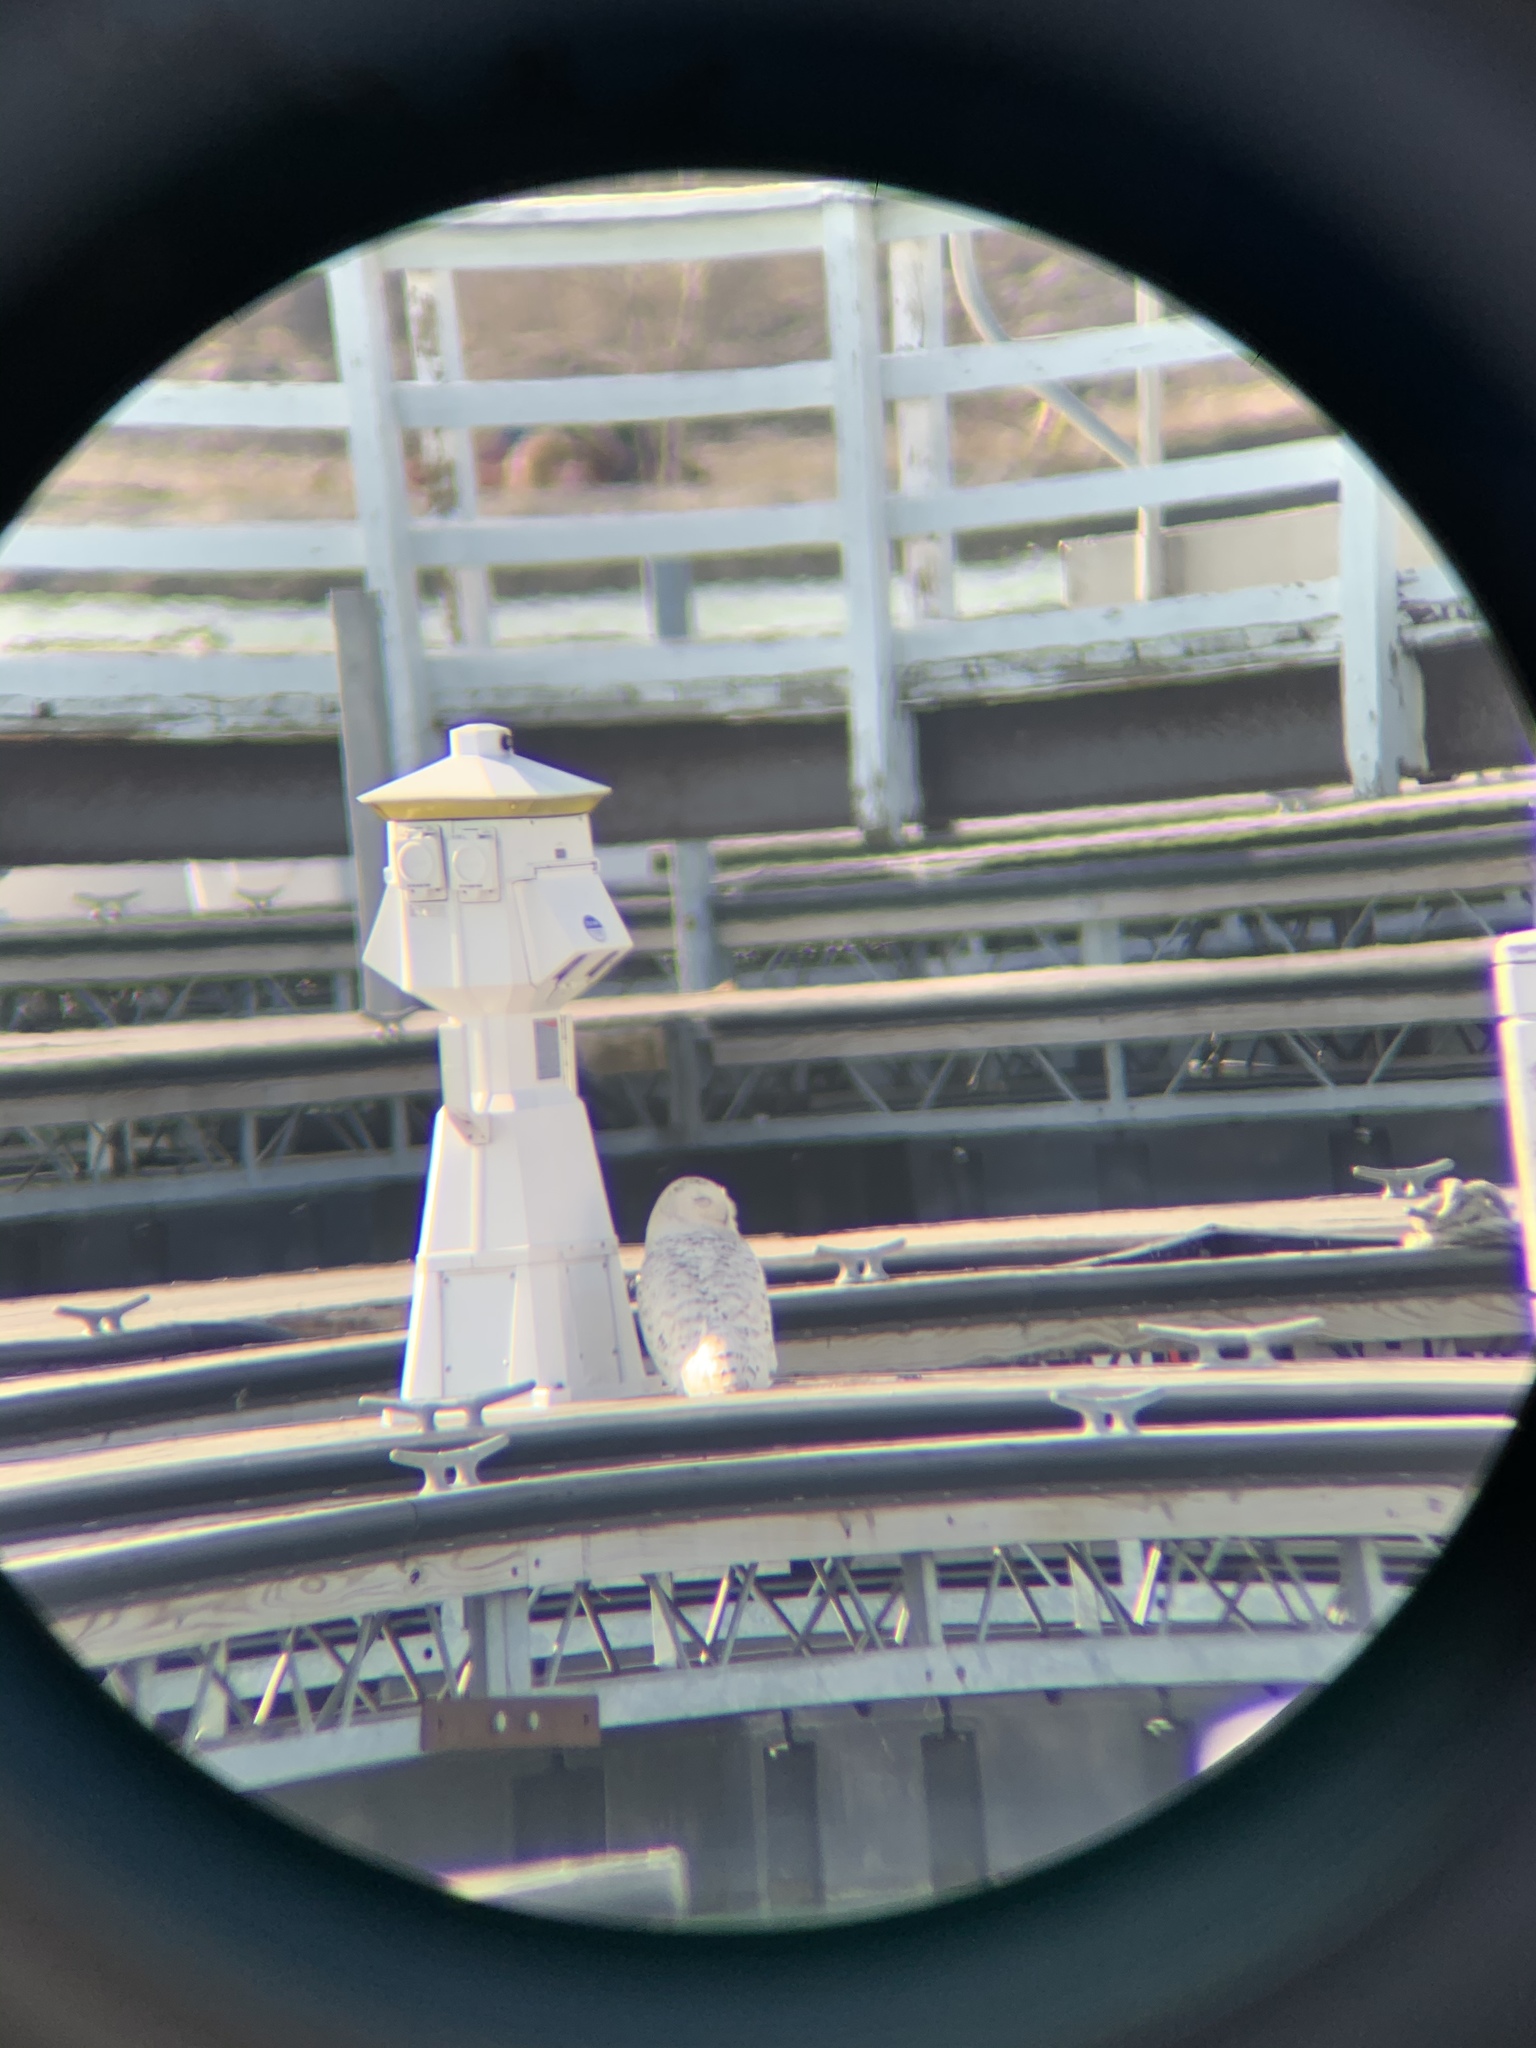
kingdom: Animalia
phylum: Chordata
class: Aves
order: Strigiformes
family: Strigidae
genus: Bubo
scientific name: Bubo scandiacus
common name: Snowy owl
